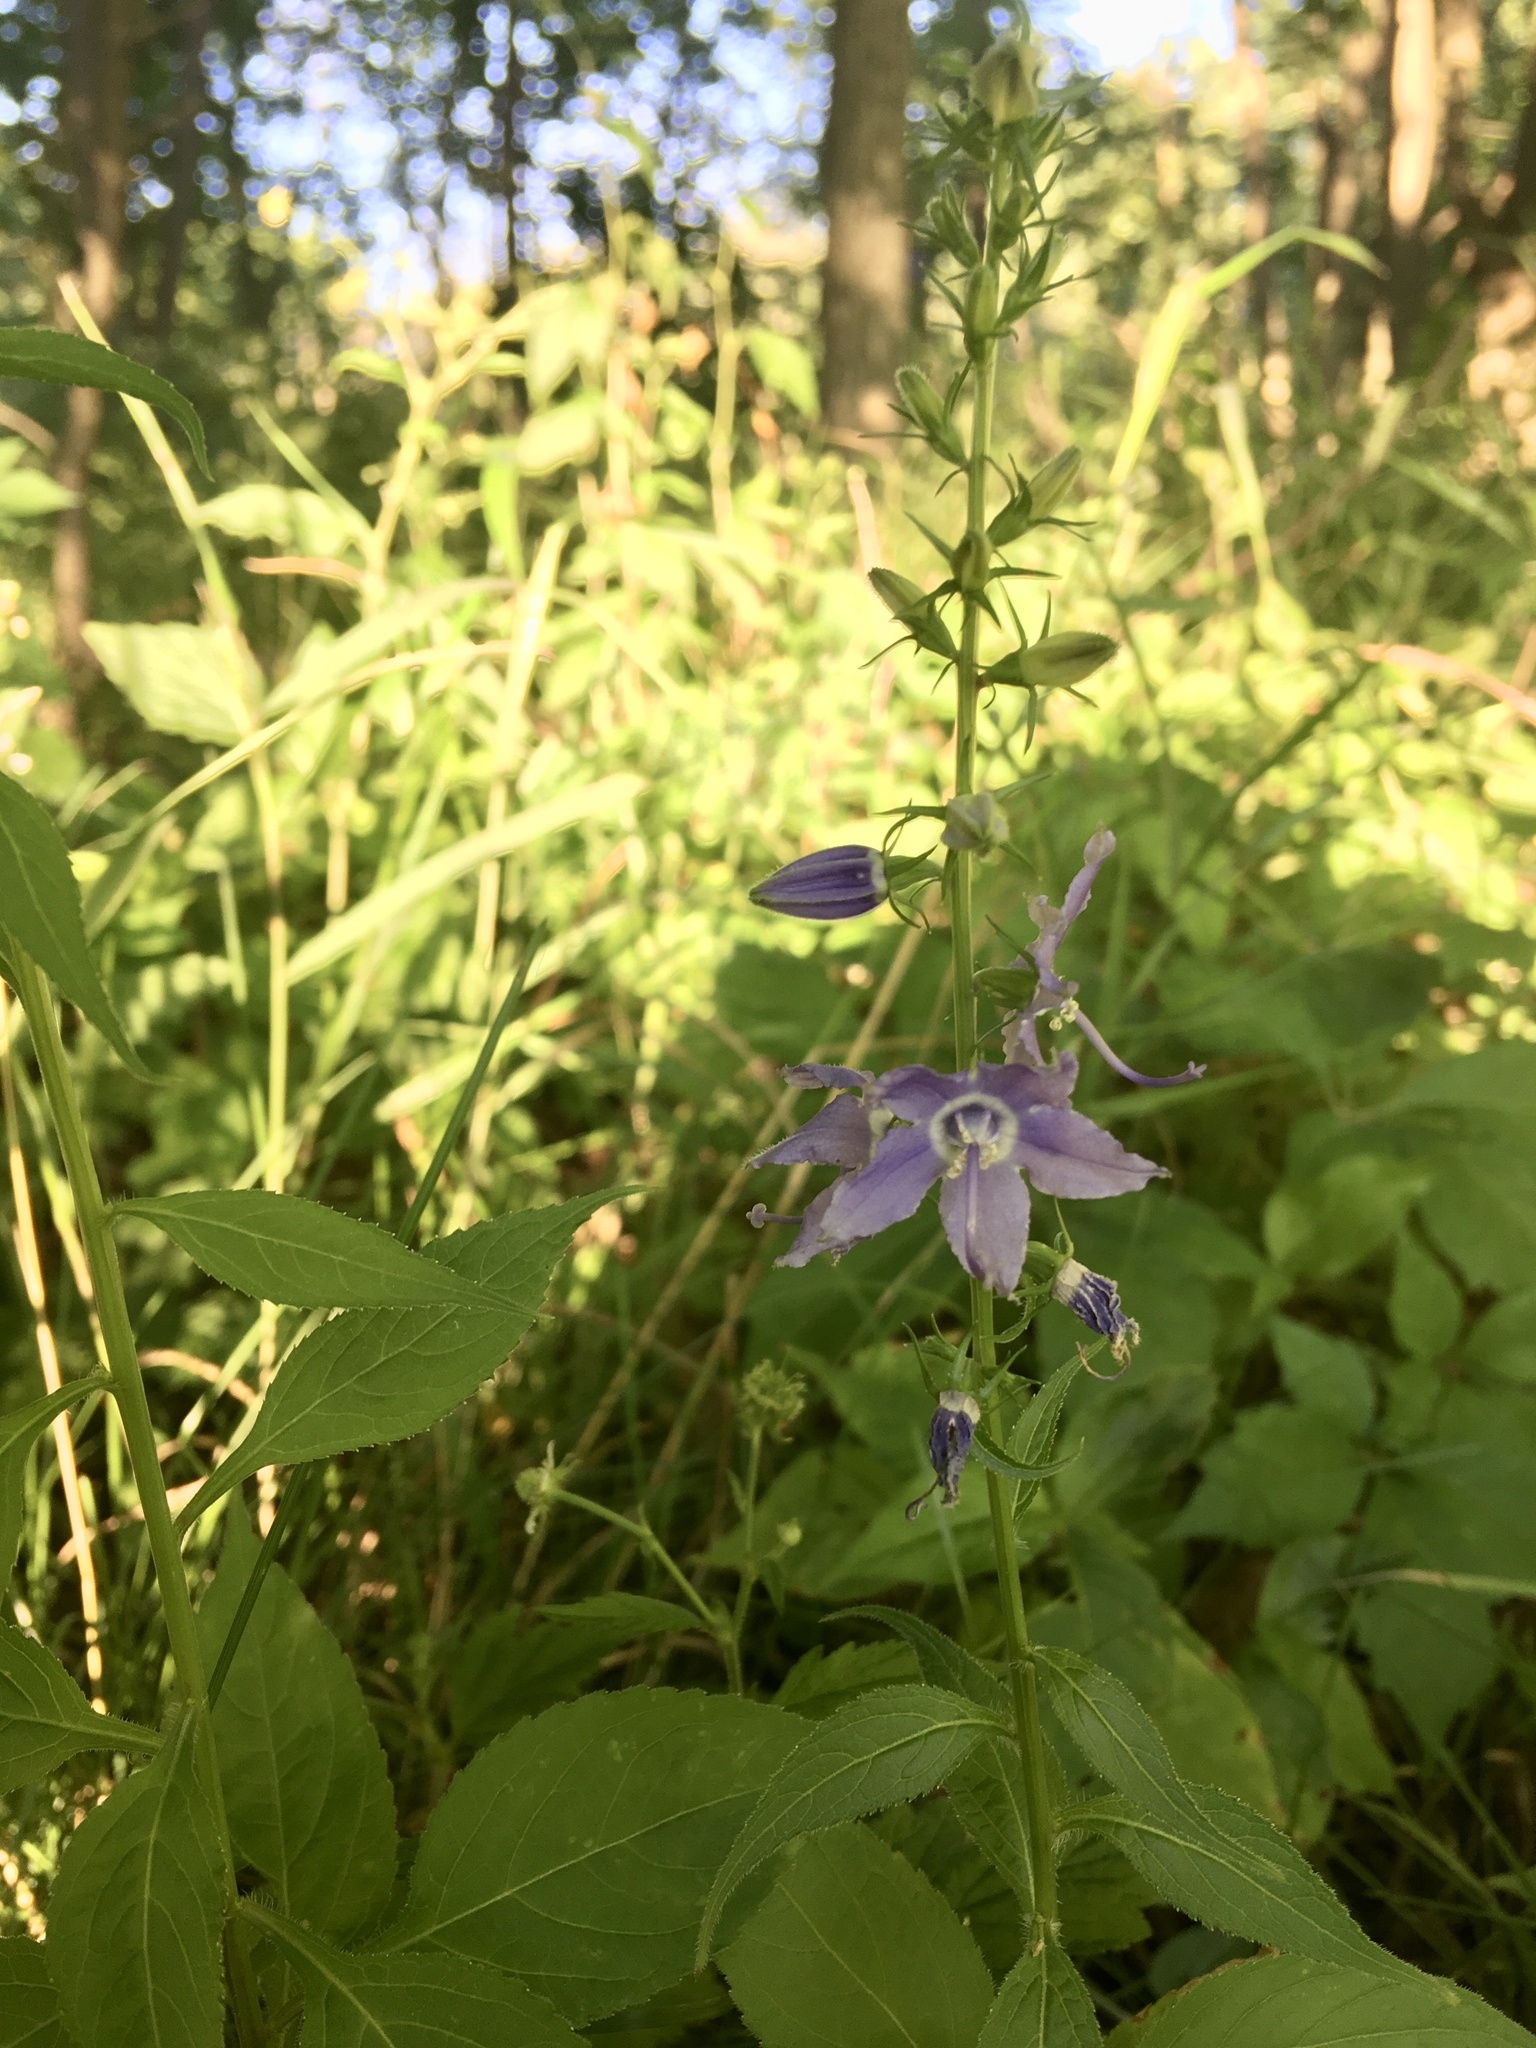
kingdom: Plantae
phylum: Tracheophyta
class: Magnoliopsida
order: Asterales
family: Campanulaceae
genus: Campanulastrum
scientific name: Campanulastrum americanum
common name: American bellflower
